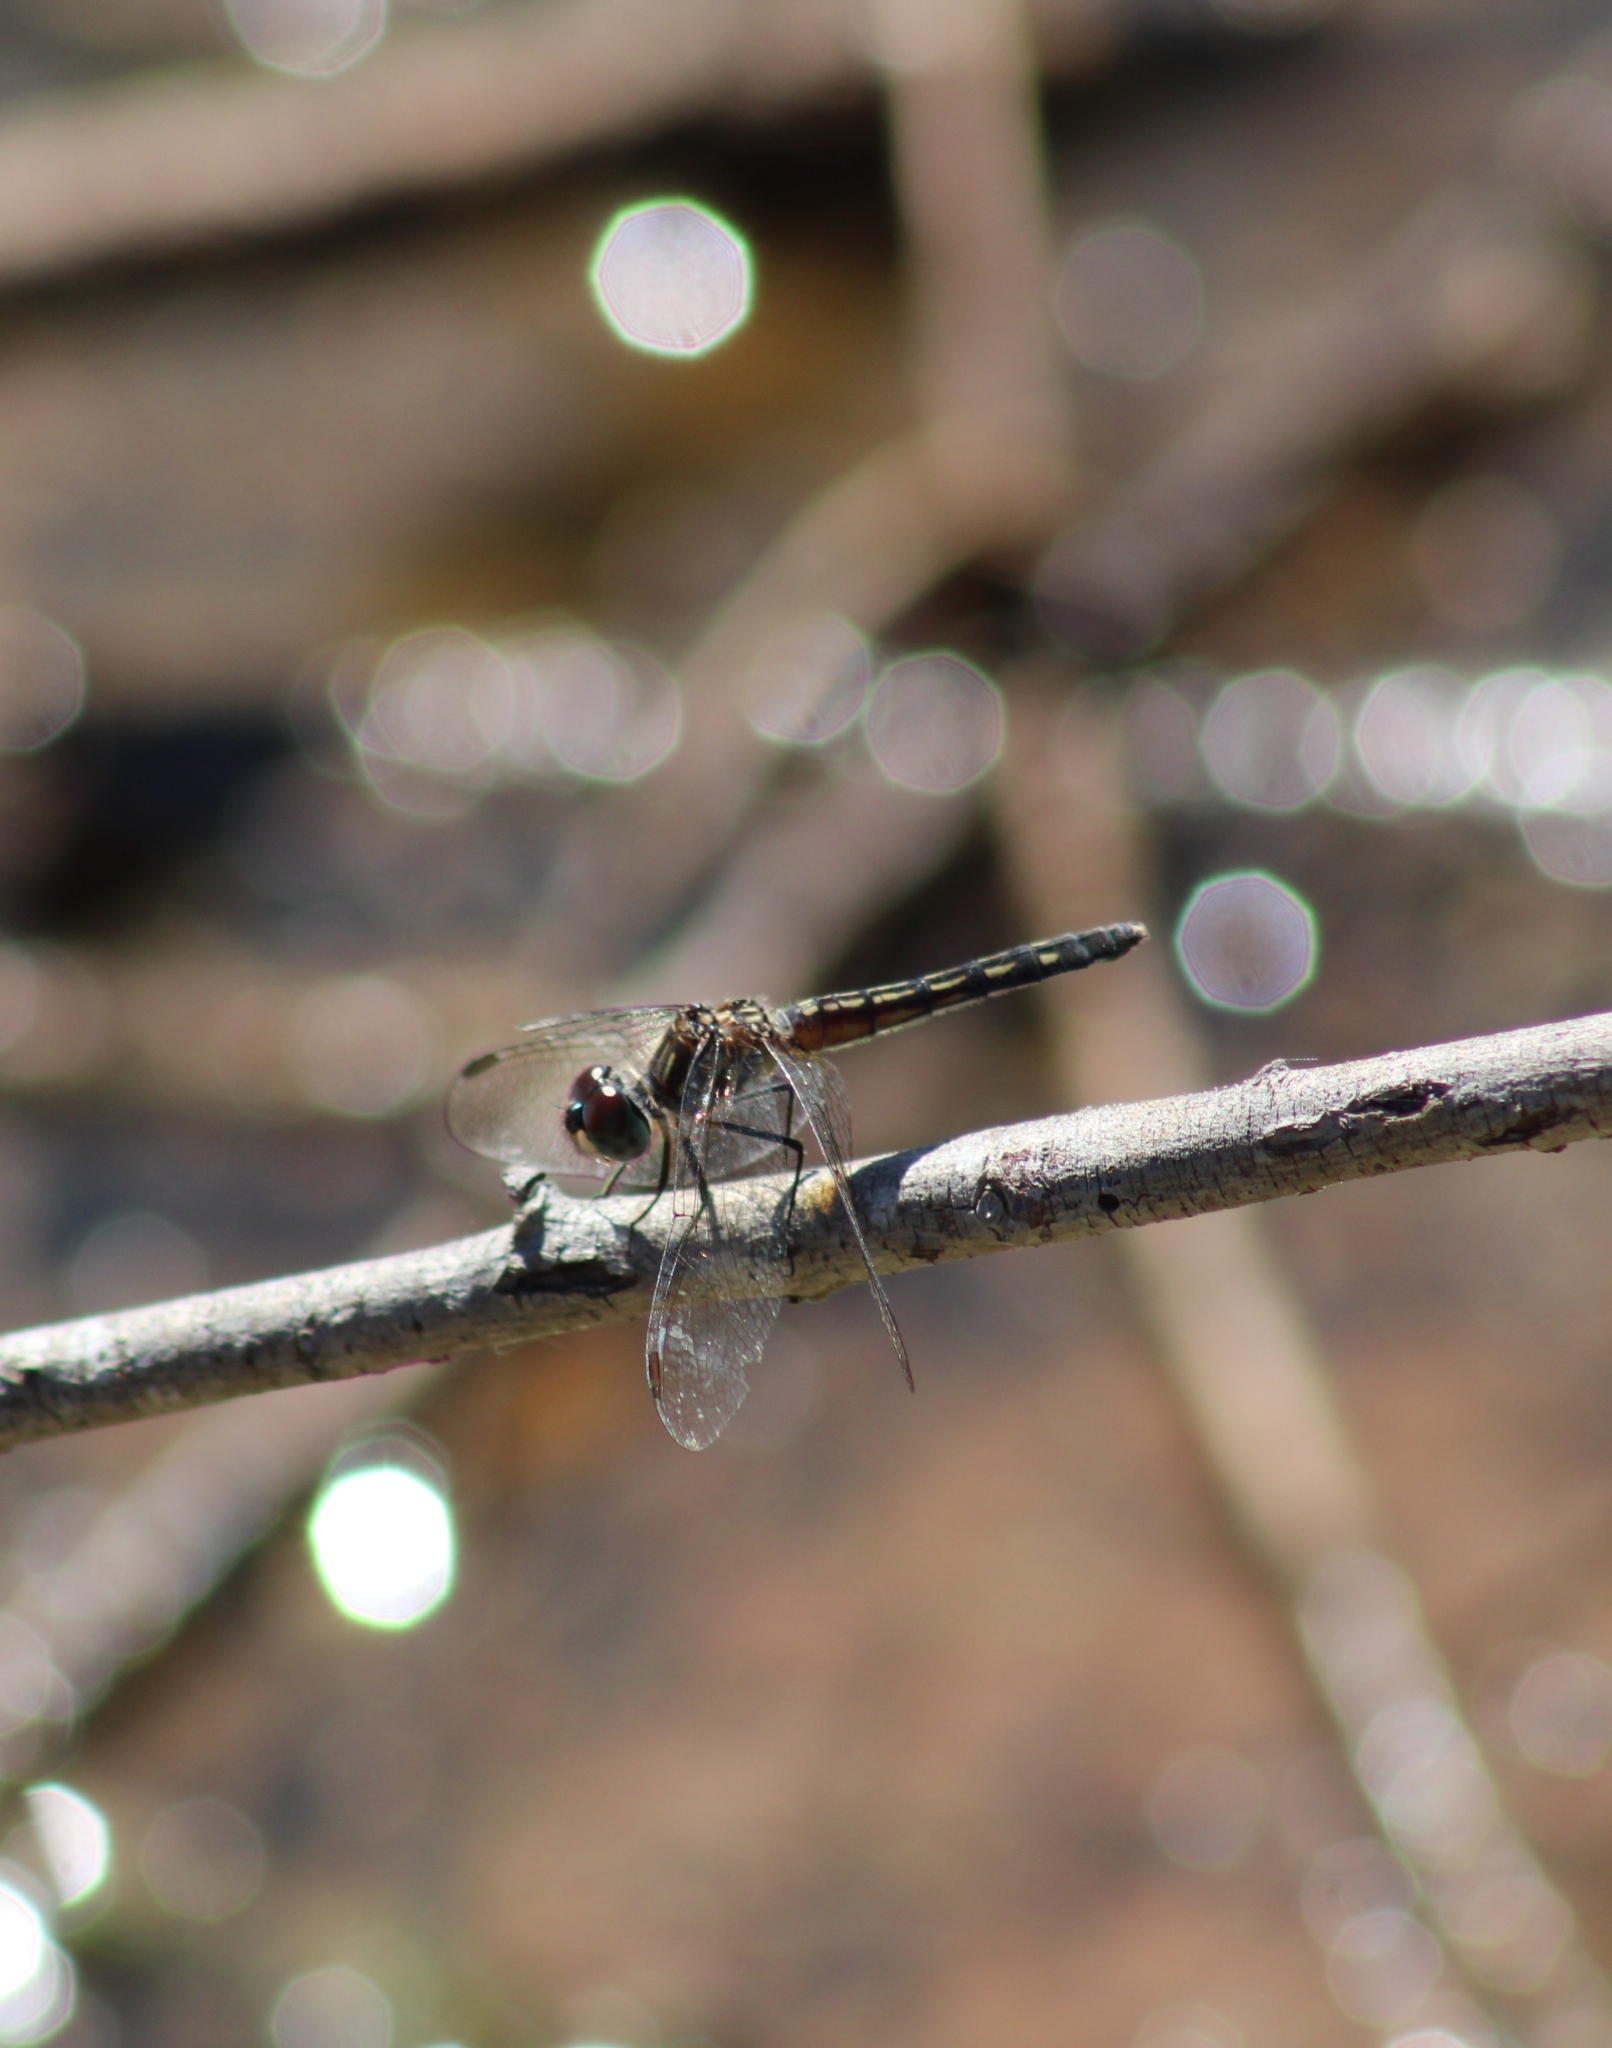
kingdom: Animalia
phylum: Arthropoda
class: Insecta
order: Odonata
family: Libellulidae
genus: Pachydiplax
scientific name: Pachydiplax longipennis
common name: Blue dasher
